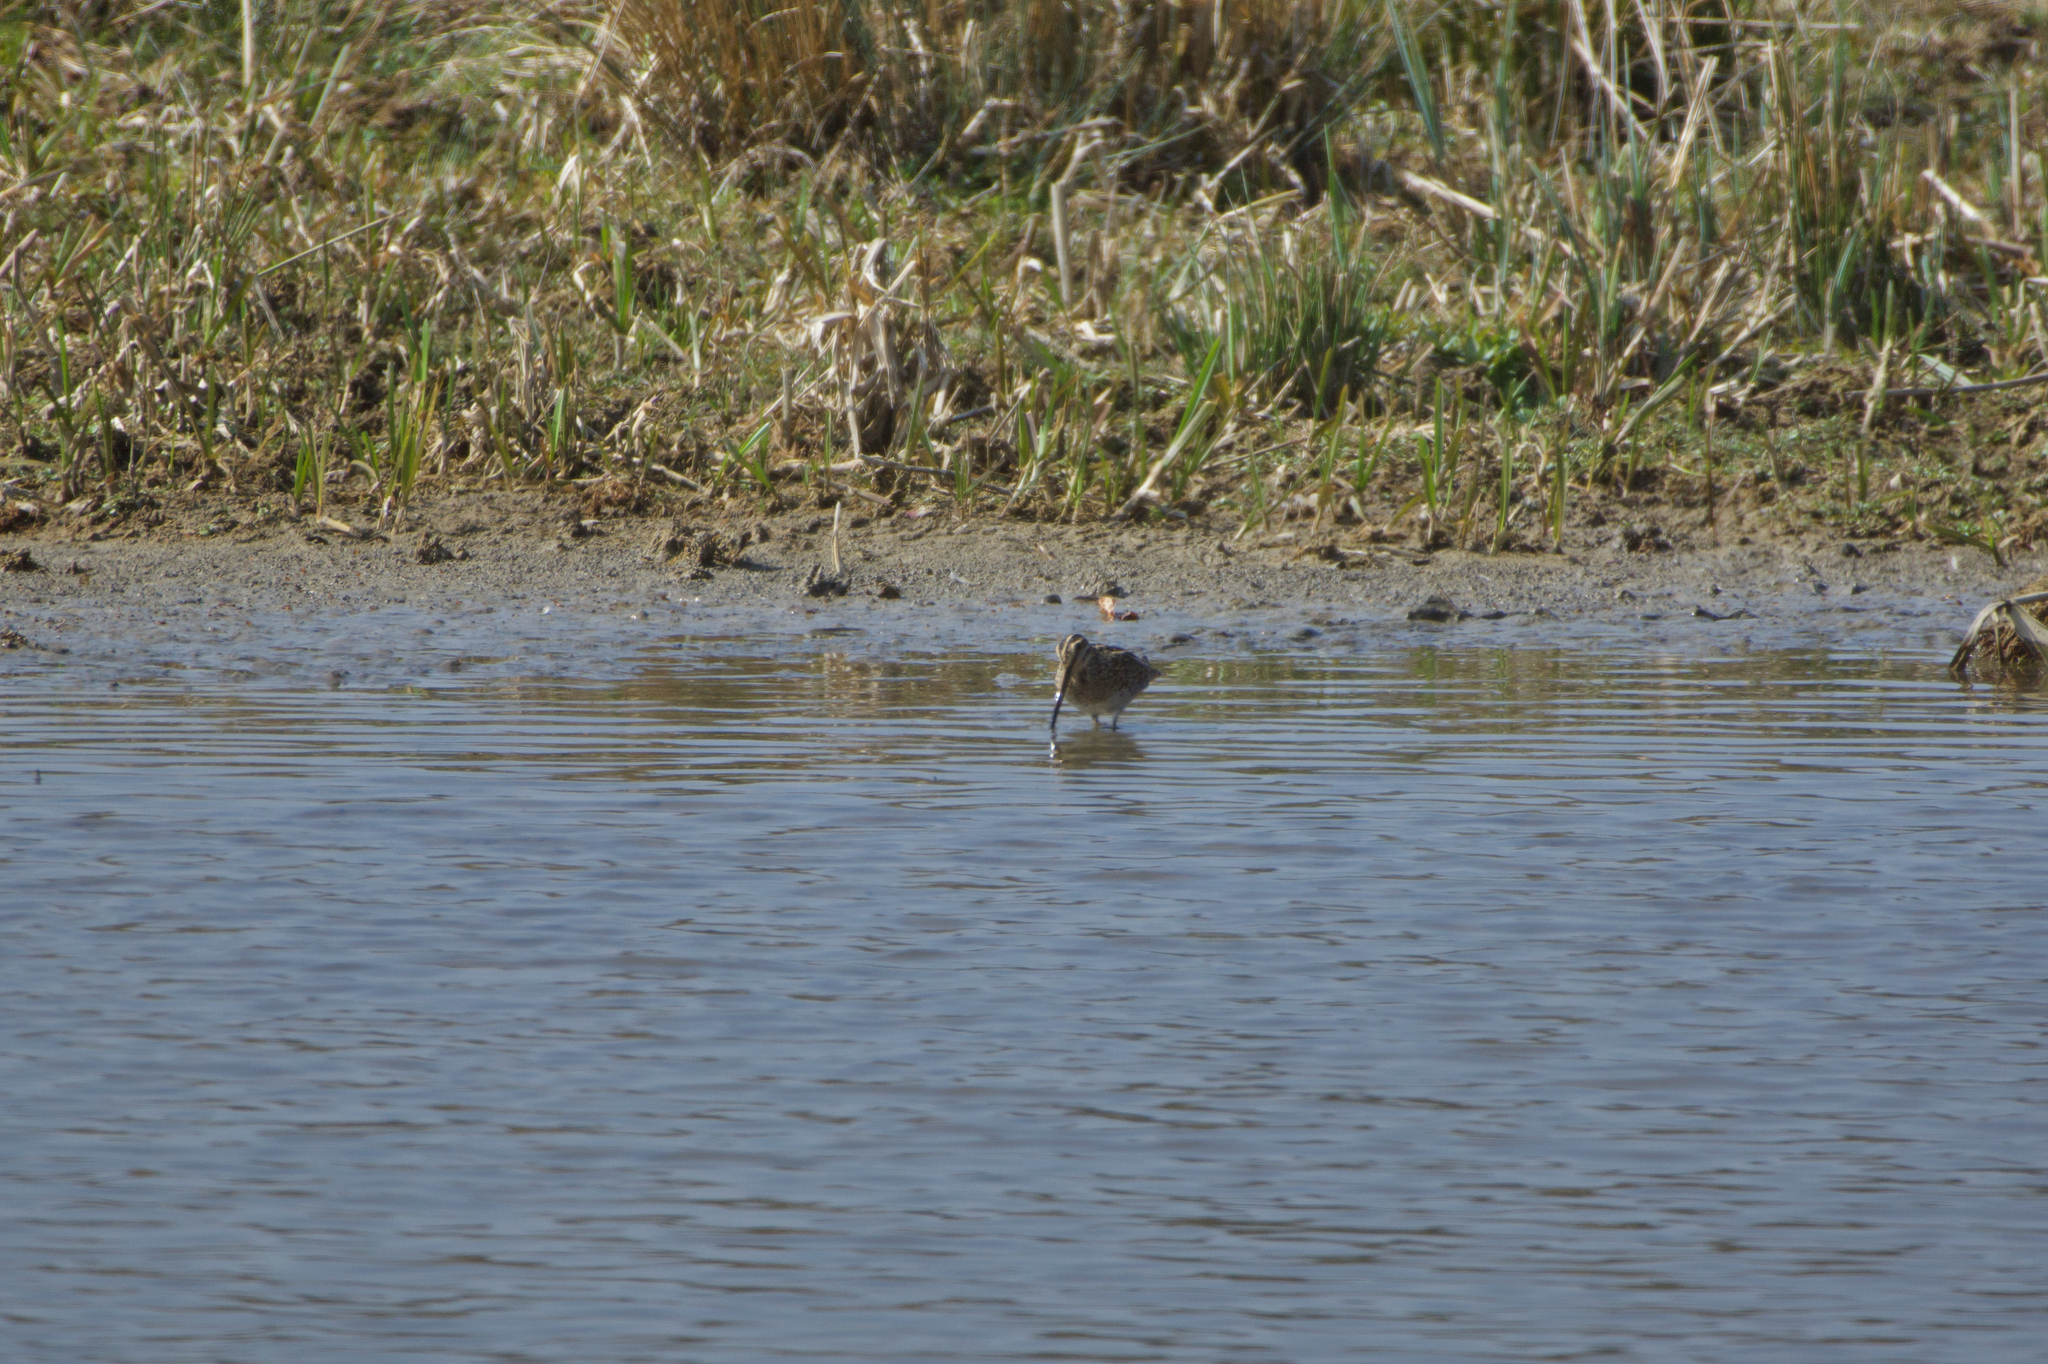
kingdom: Animalia
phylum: Chordata
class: Aves
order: Charadriiformes
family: Scolopacidae
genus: Gallinago
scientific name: Gallinago gallinago
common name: Common snipe
